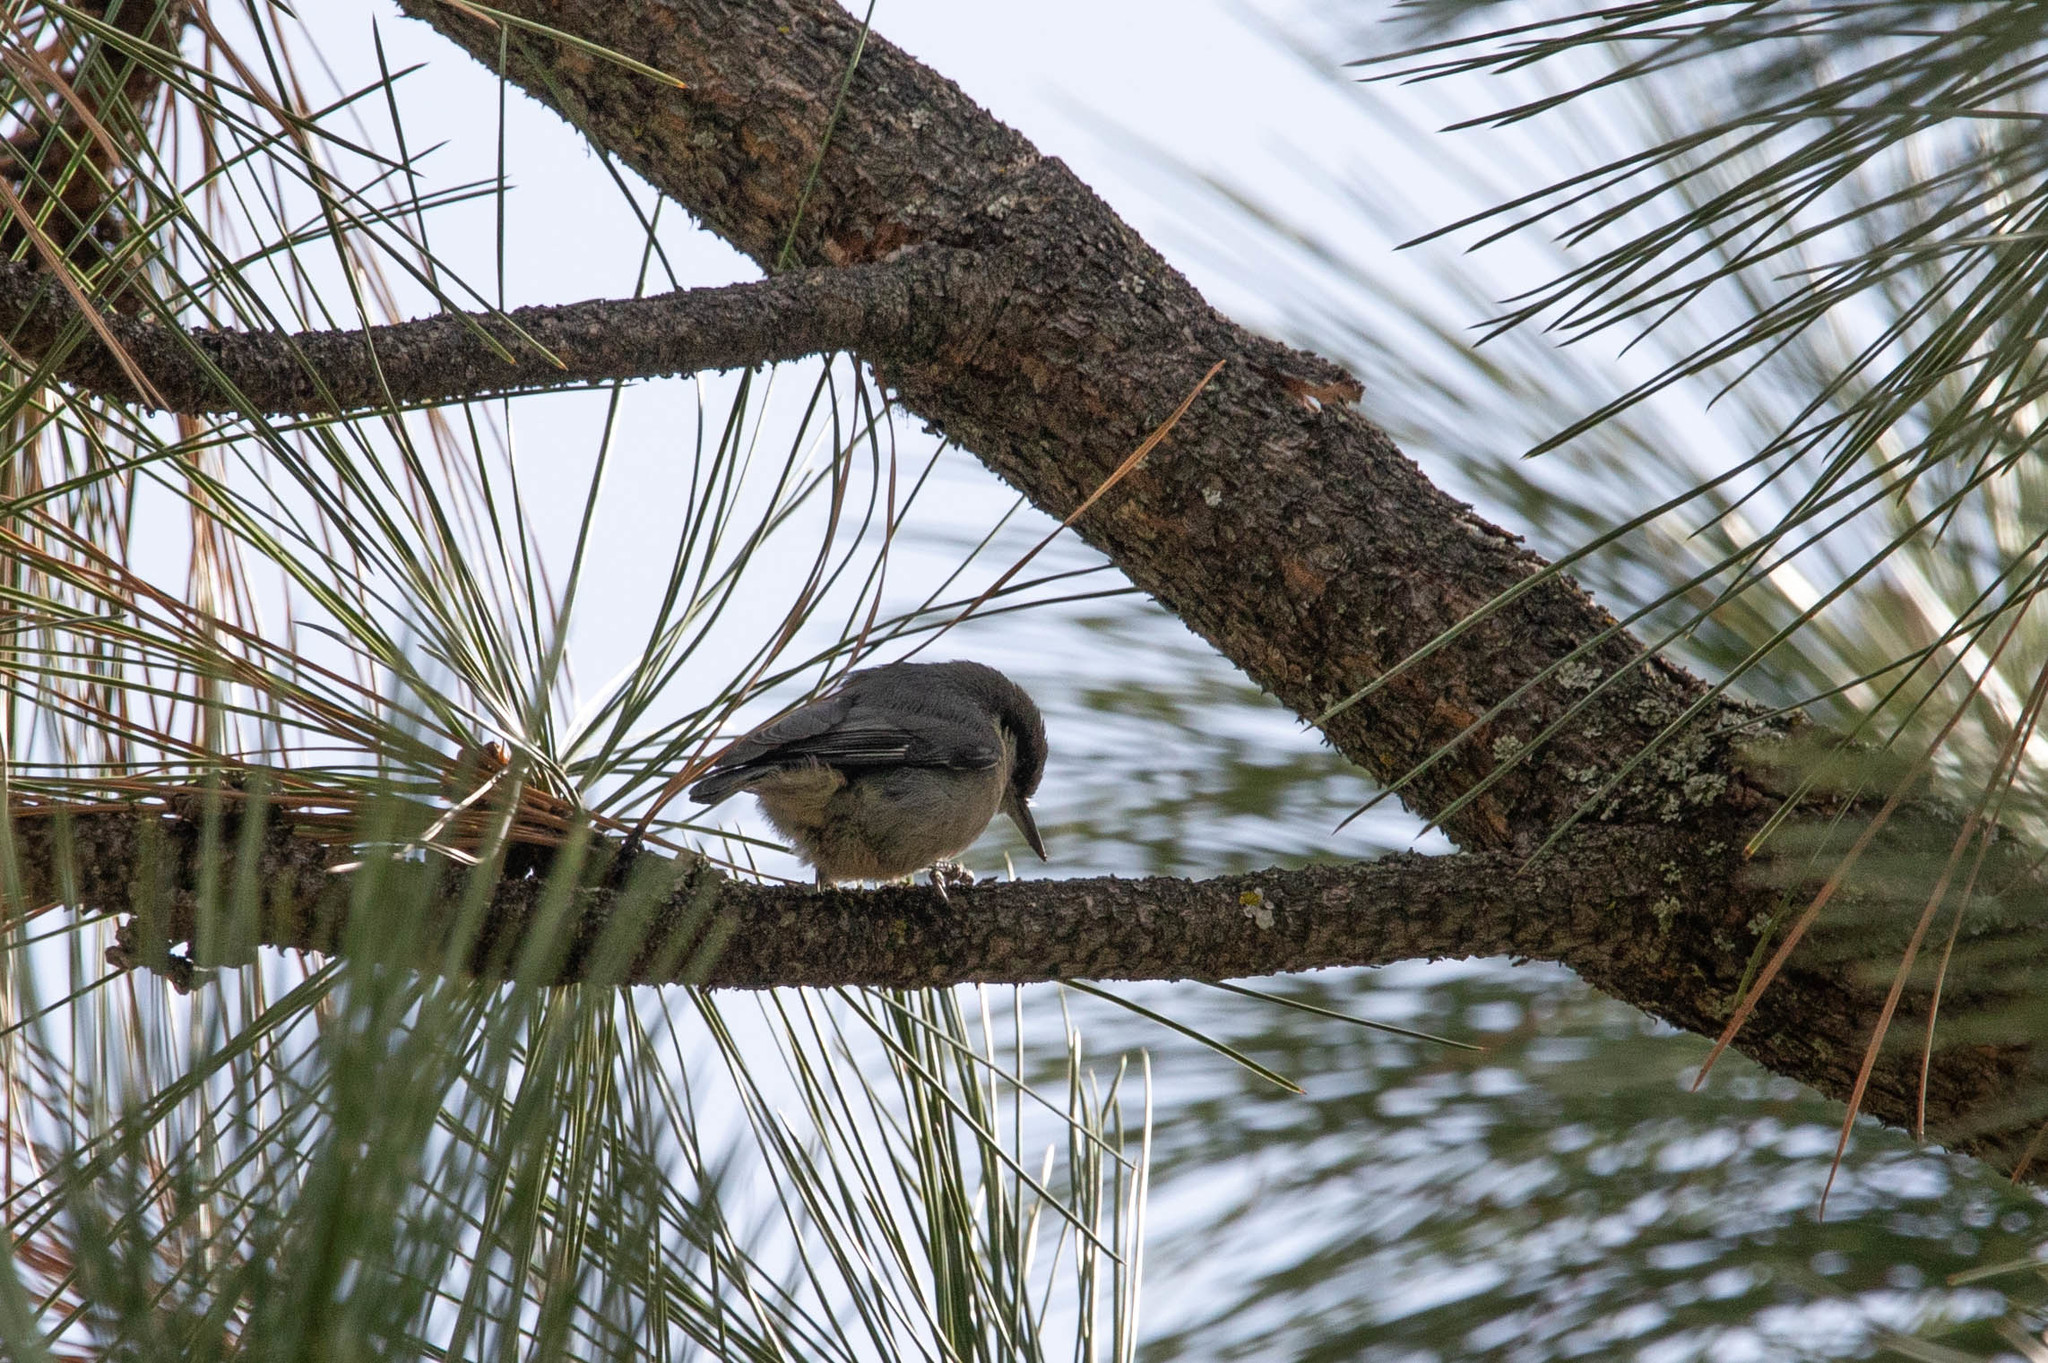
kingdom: Animalia
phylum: Chordata
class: Aves
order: Passeriformes
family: Sittidae
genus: Sitta
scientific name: Sitta pygmaea
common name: Pygmy nuthatch
